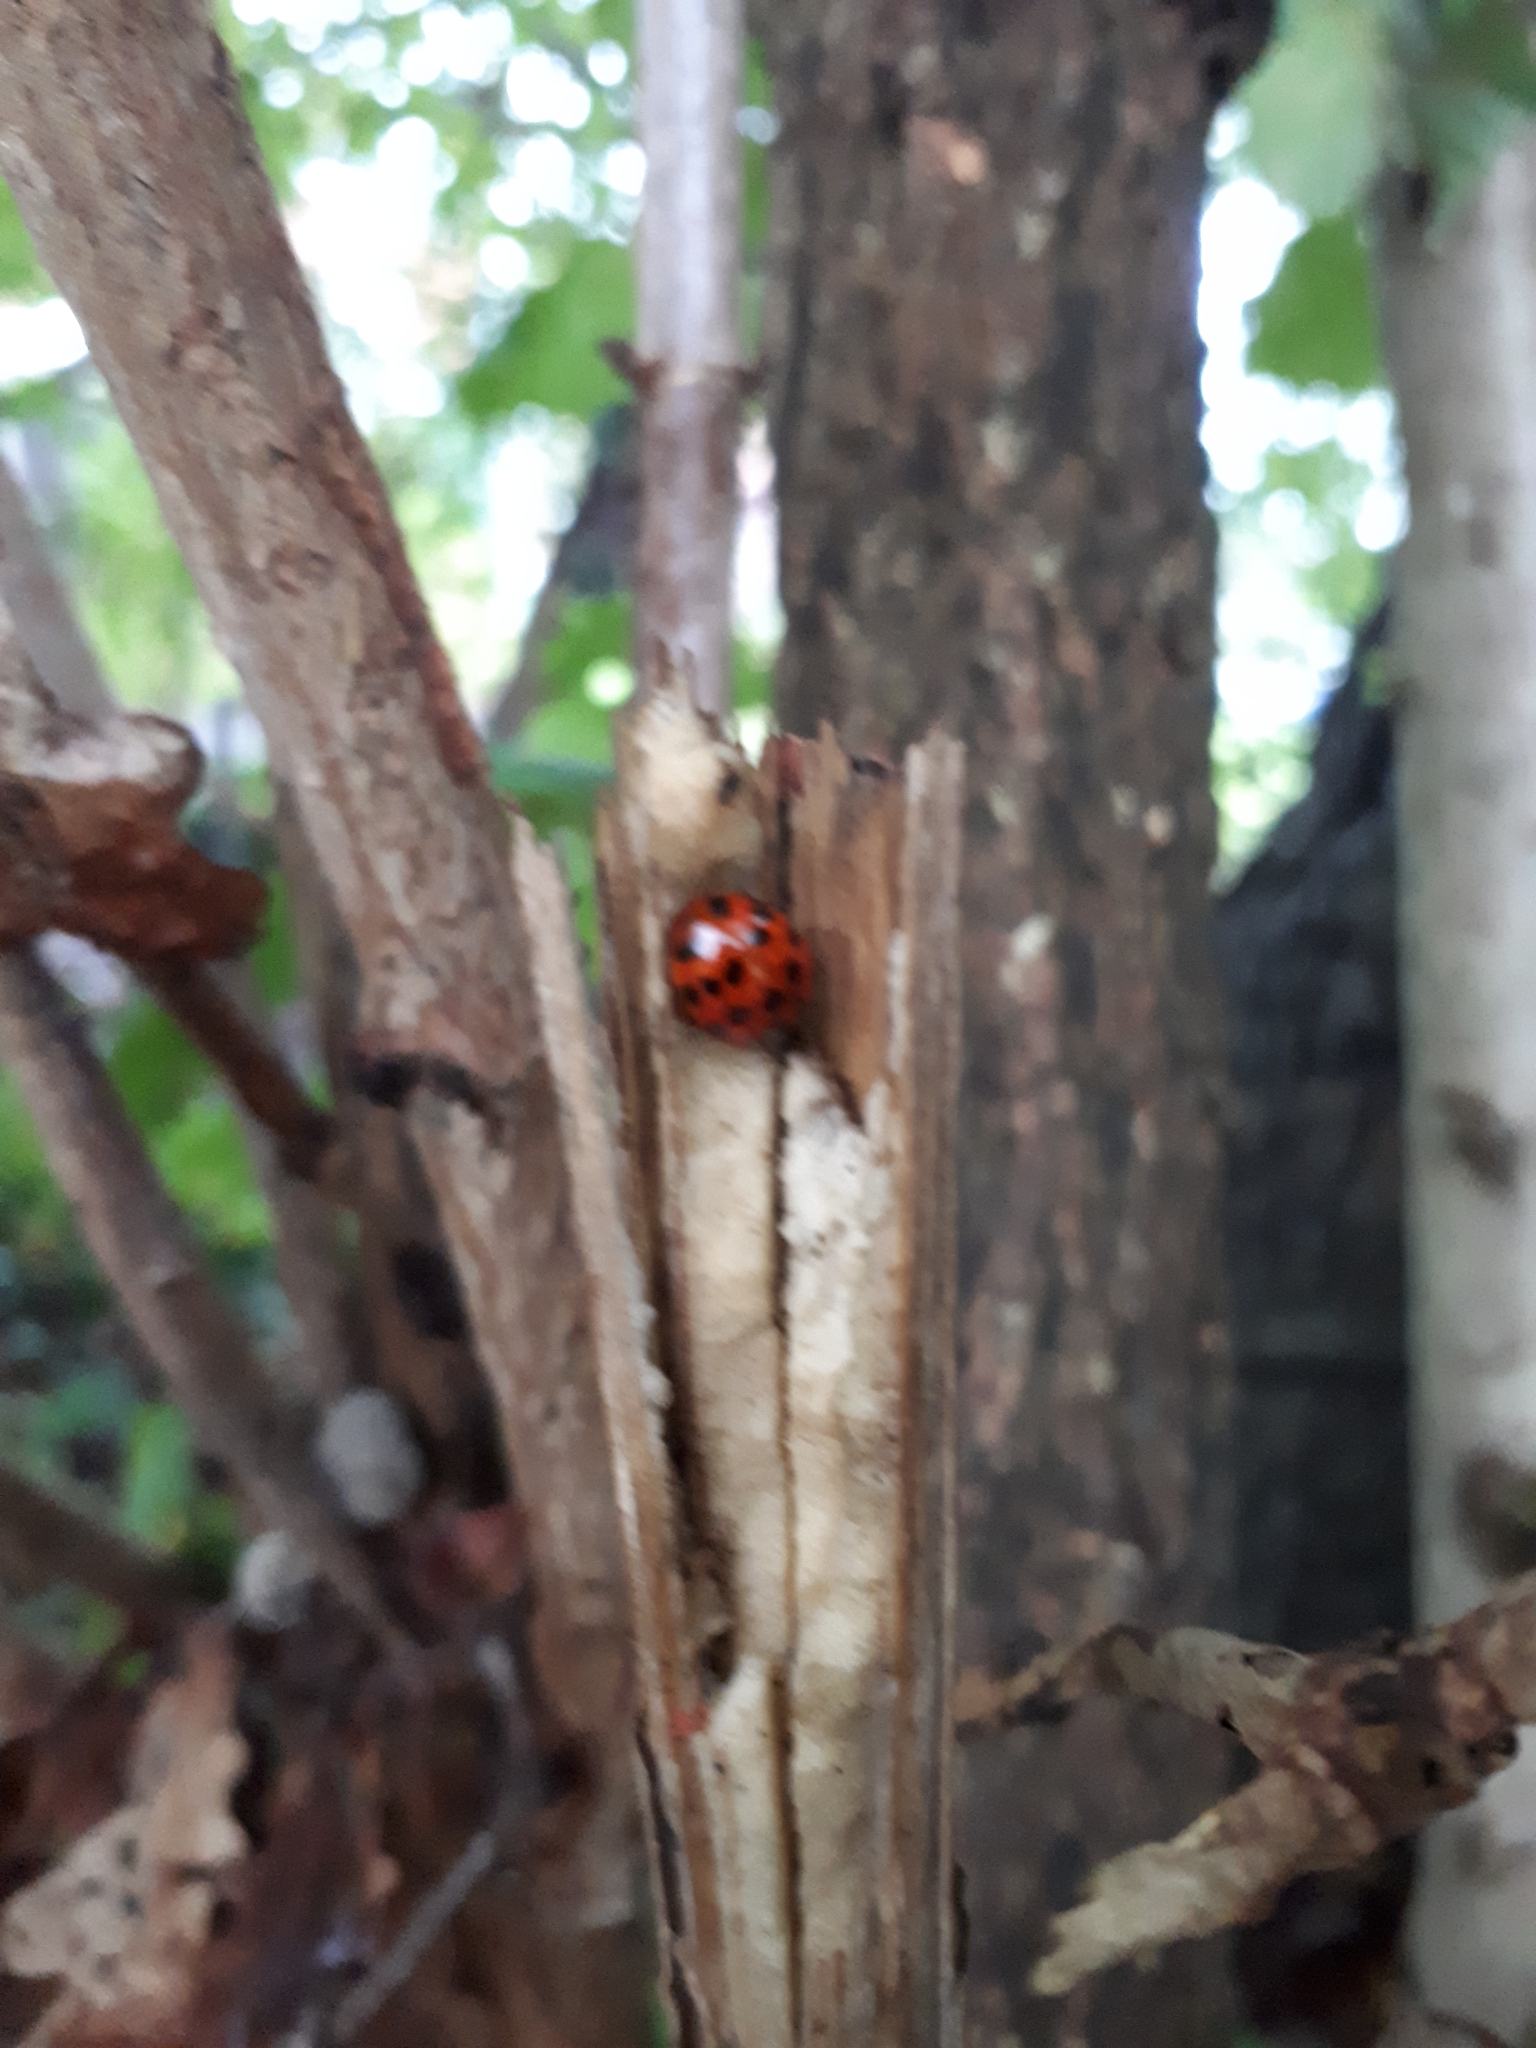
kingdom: Animalia
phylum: Arthropoda
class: Insecta
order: Coleoptera
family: Coccinellidae
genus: Harmonia
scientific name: Harmonia axyridis
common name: Harlequin ladybird
